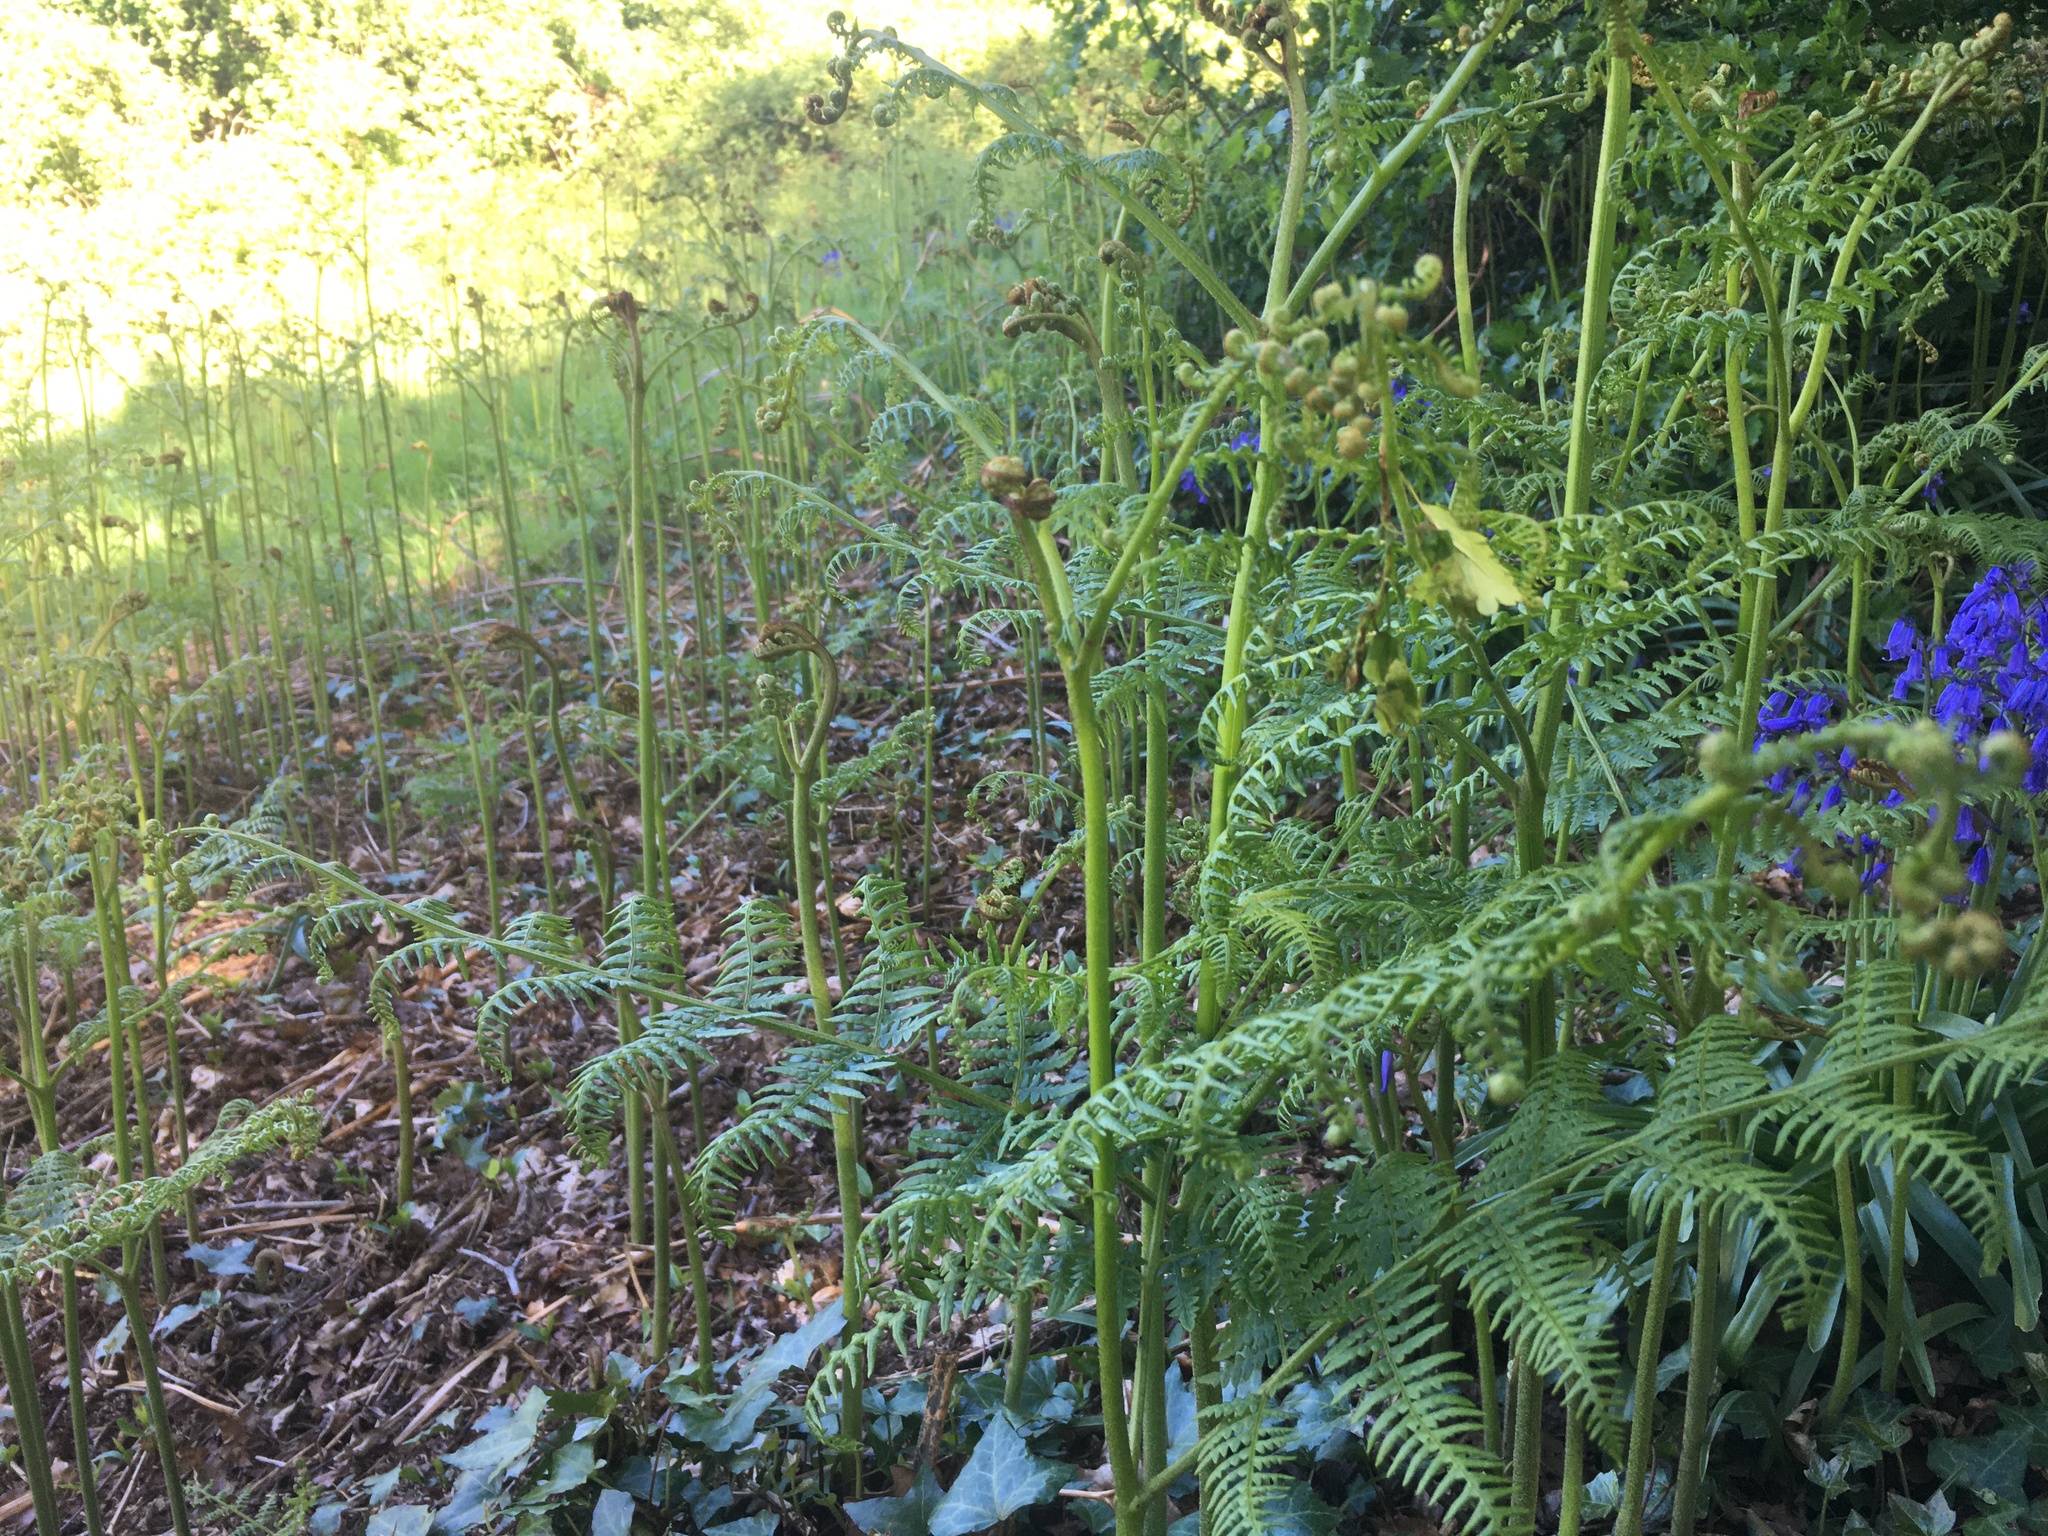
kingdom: Plantae
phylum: Tracheophyta
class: Polypodiopsida
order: Polypodiales
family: Dennstaedtiaceae
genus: Pteridium
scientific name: Pteridium aquilinum
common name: Bracken
